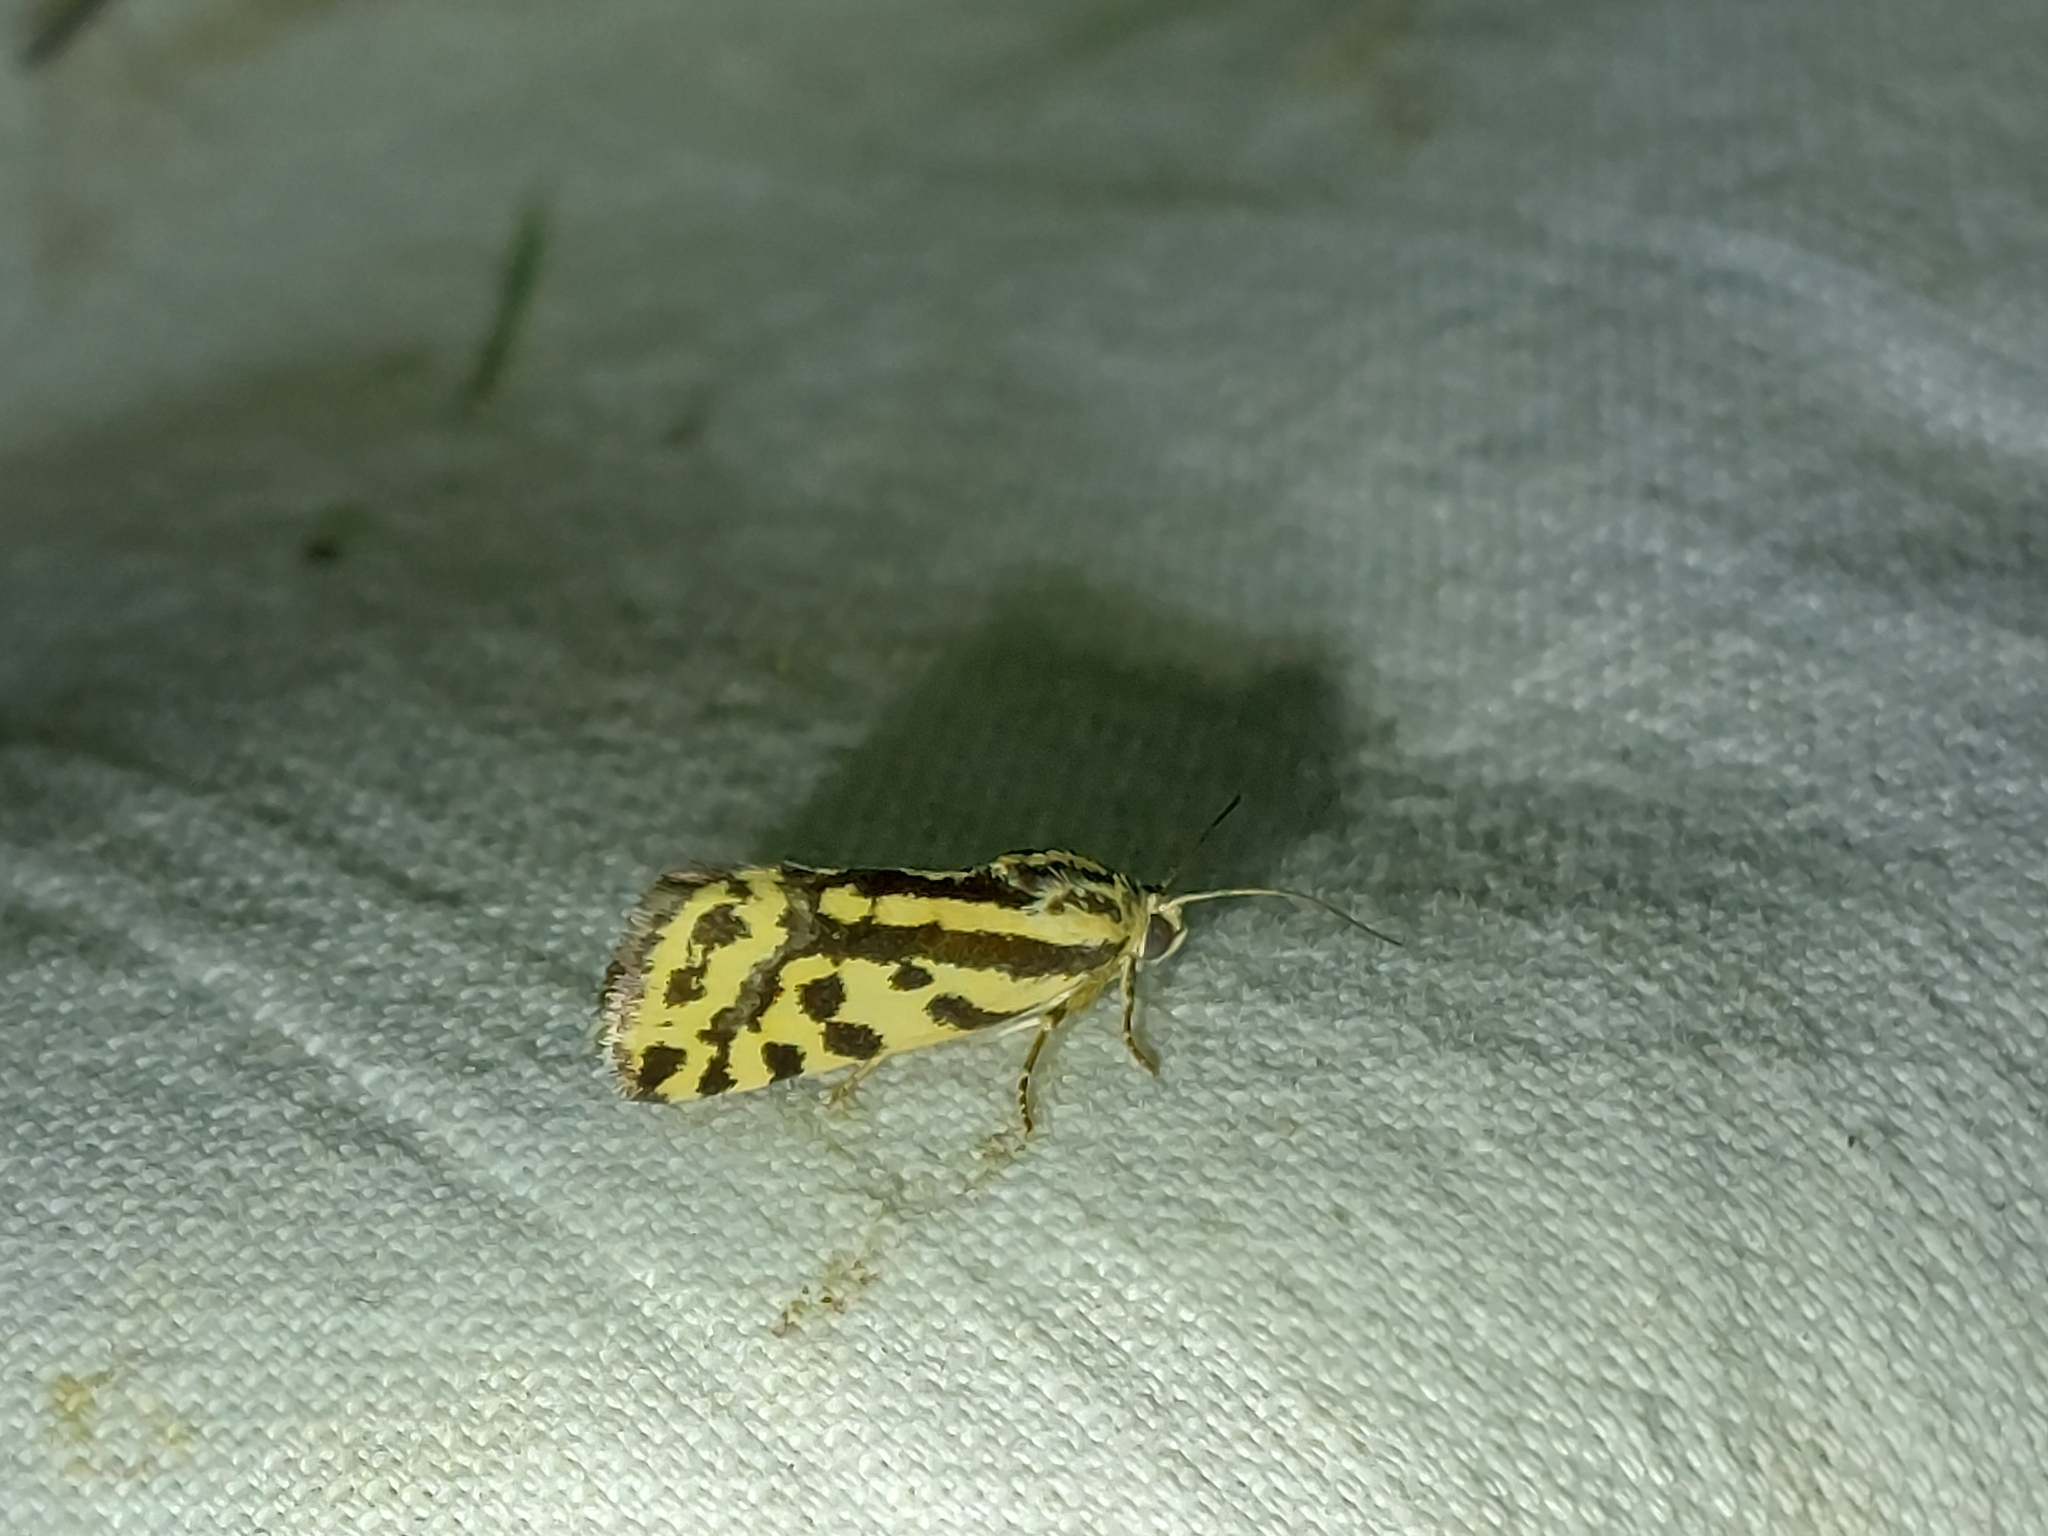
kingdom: Animalia
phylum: Arthropoda
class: Insecta
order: Lepidoptera
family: Noctuidae
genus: Acontia
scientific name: Acontia trabealis
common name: Spotted sulphur
